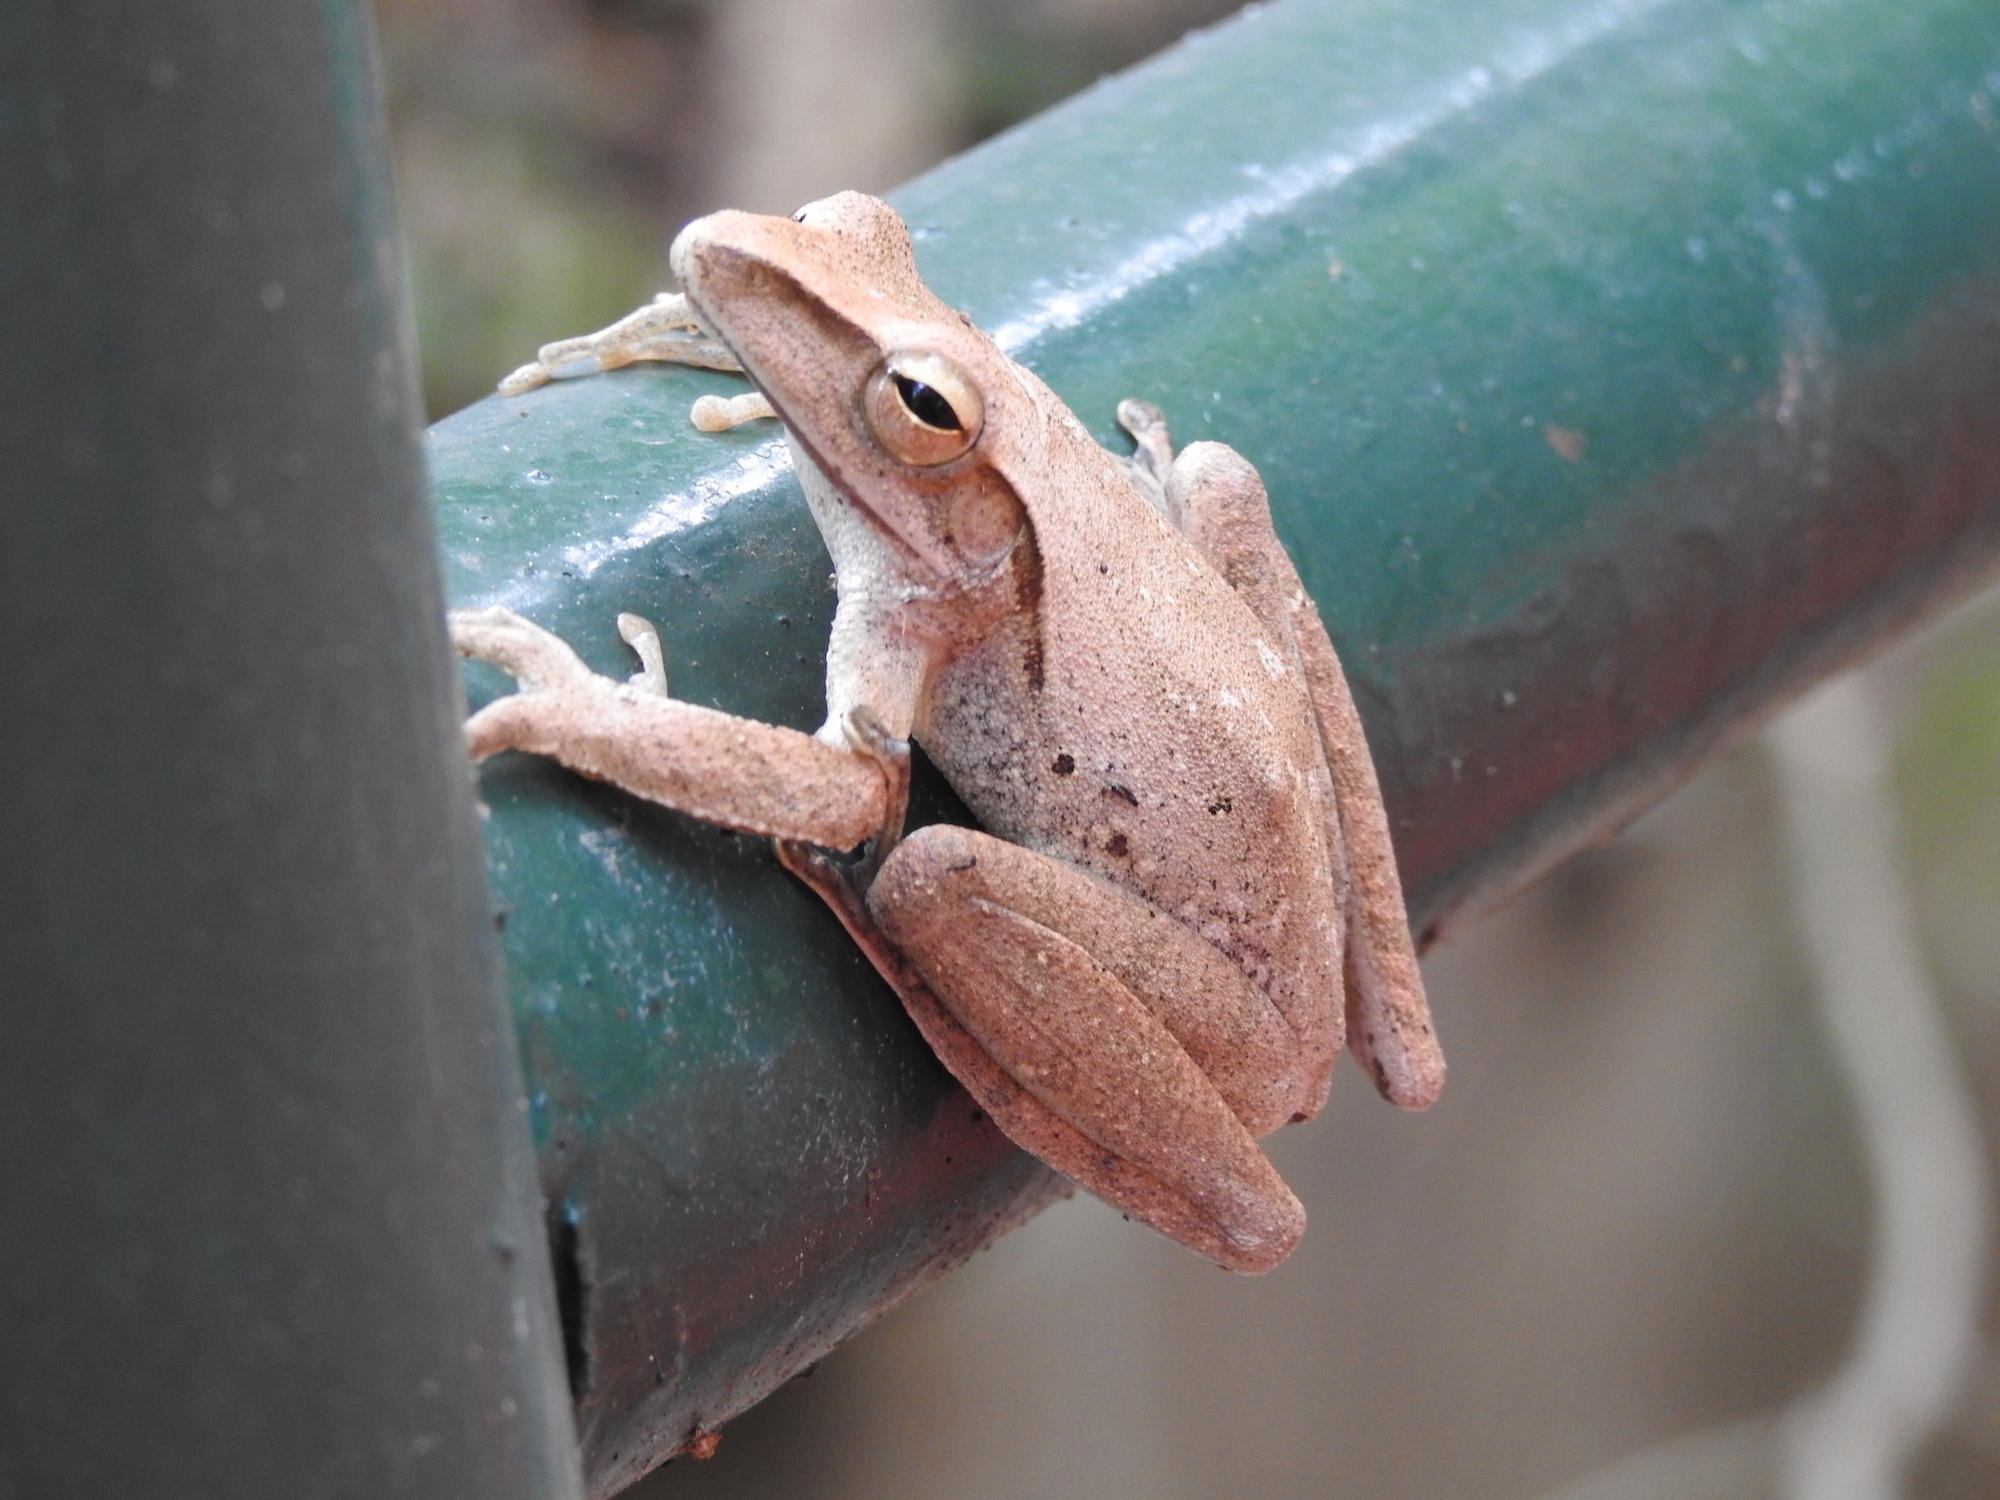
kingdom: Animalia
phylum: Chordata
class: Amphibia
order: Anura
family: Rhacophoridae
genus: Polypedates
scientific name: Polypedates leucomystax
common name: Common tree frog/four-lined tree frog
